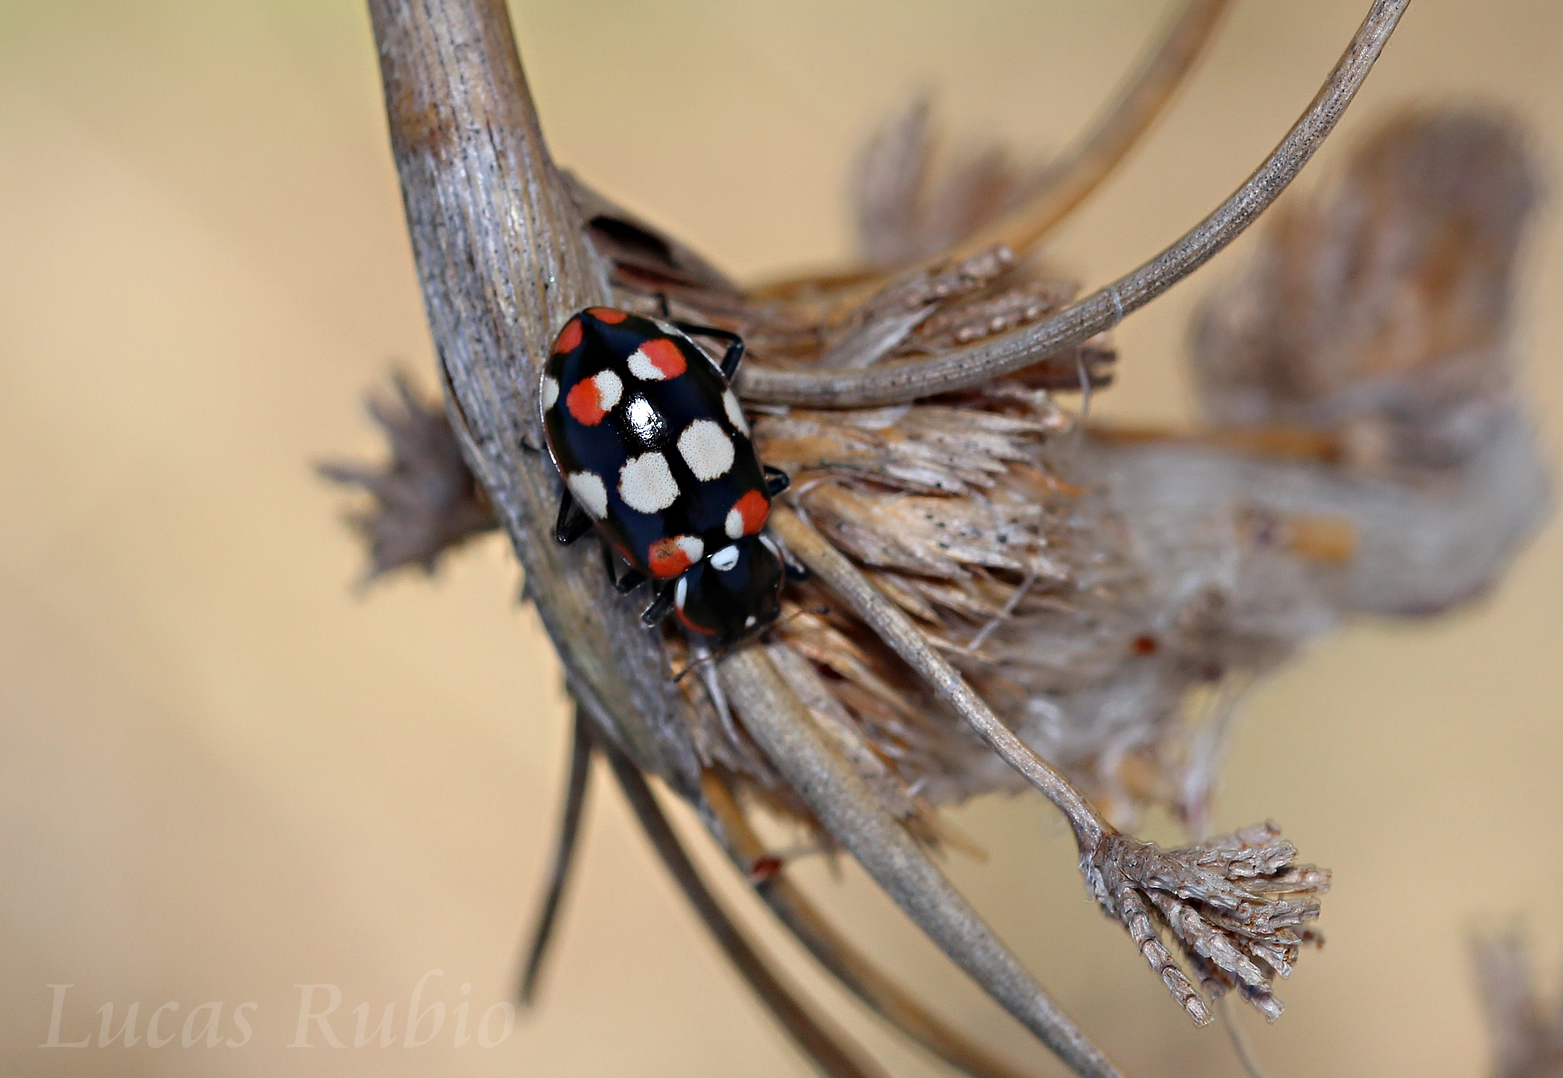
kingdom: Animalia
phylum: Arthropoda
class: Insecta
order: Coleoptera
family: Coccinellidae
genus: Eriopis
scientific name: Eriopis connexa
